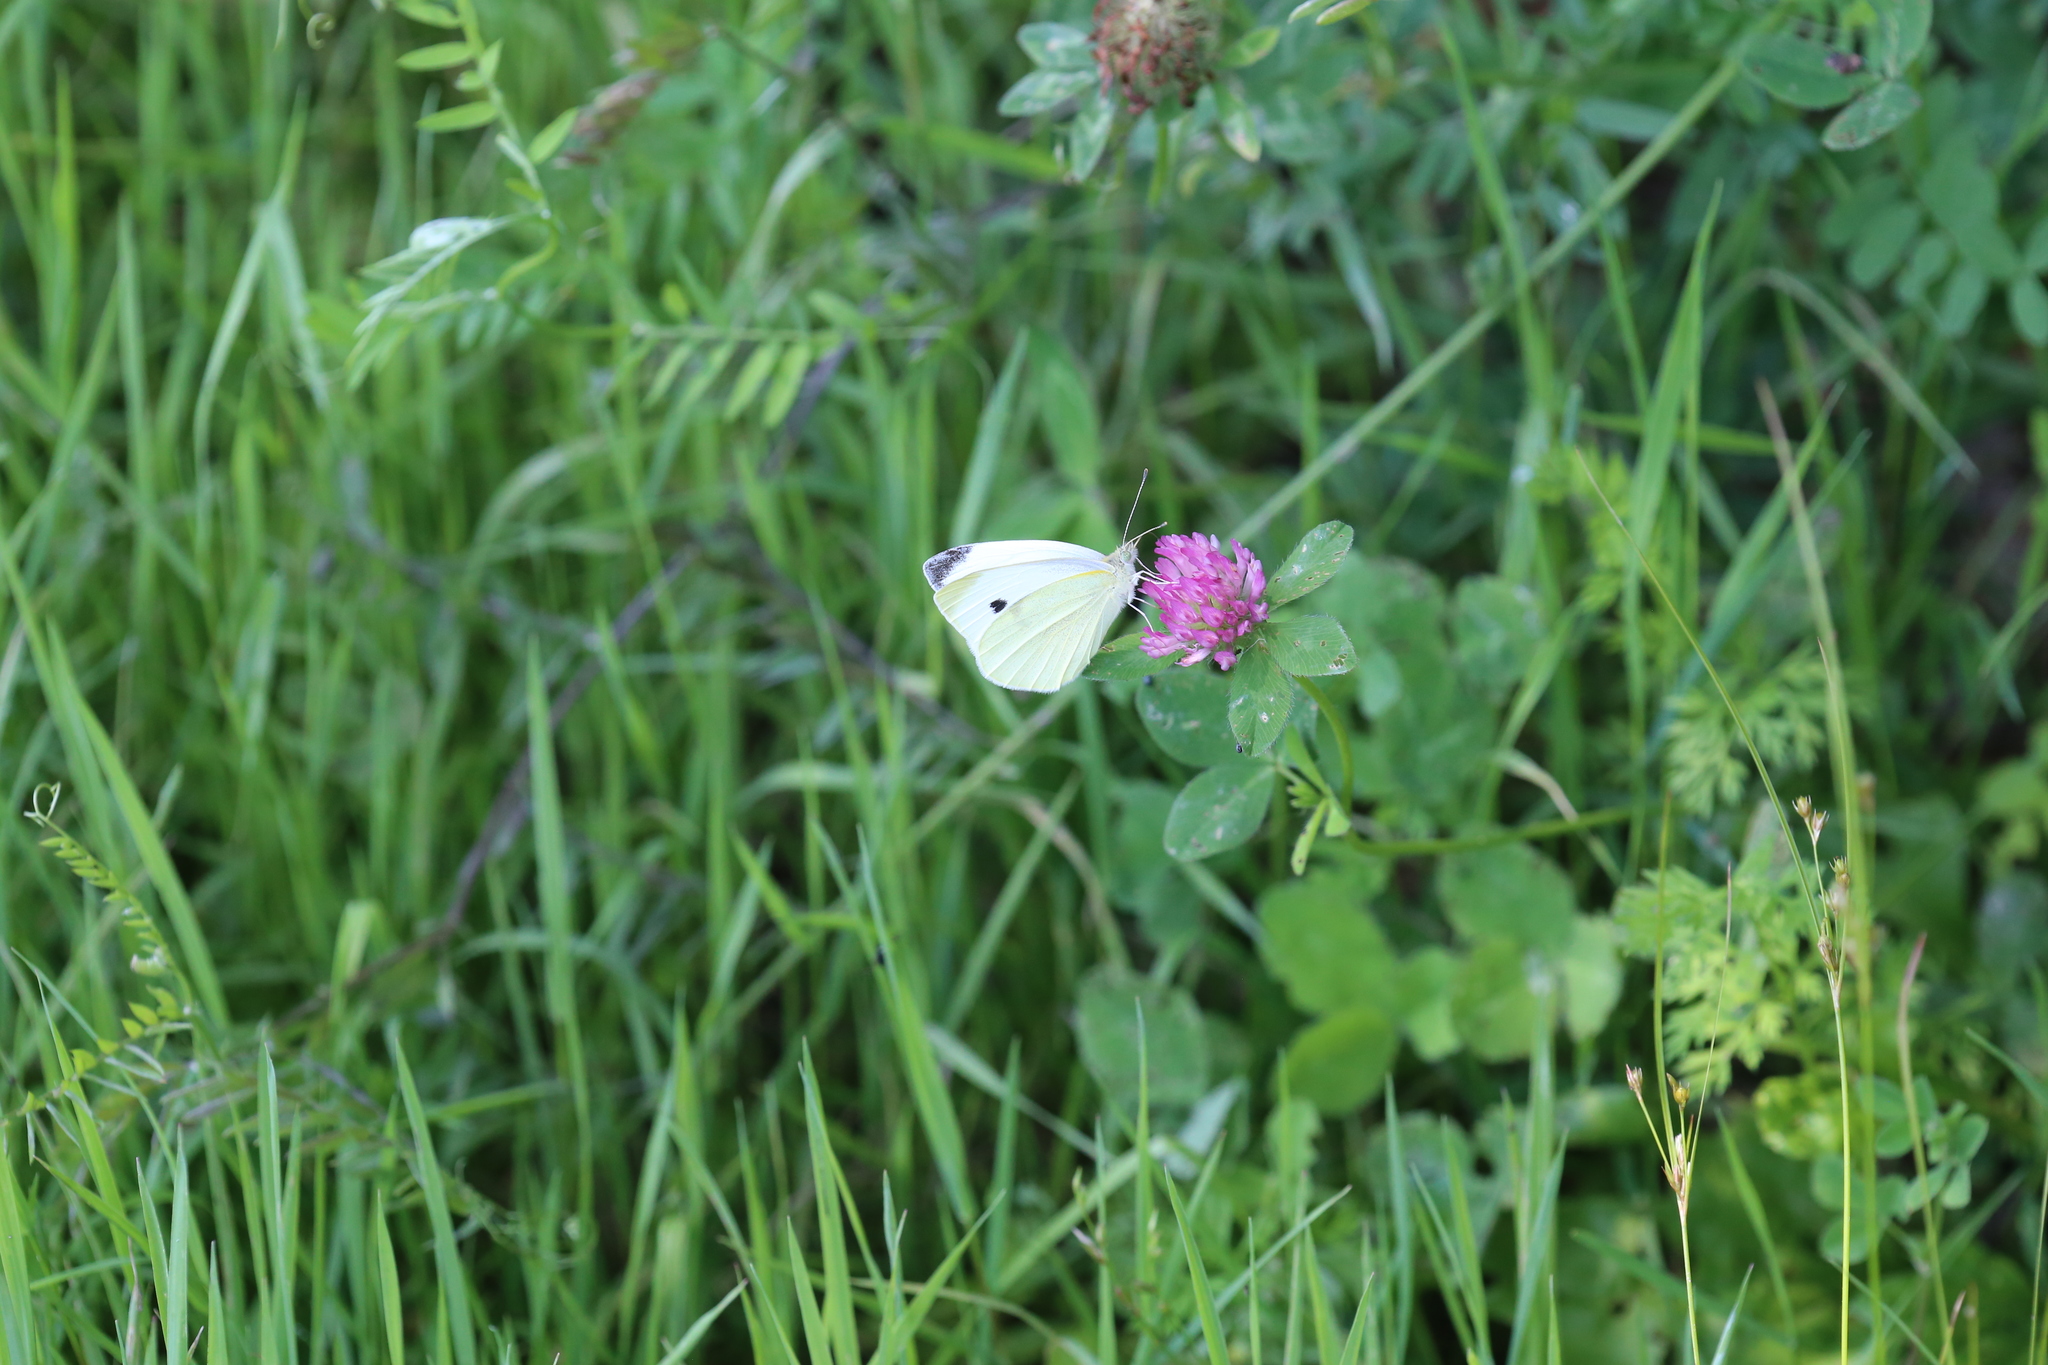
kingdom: Animalia
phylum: Arthropoda
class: Insecta
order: Lepidoptera
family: Pieridae
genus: Pieris
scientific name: Pieris rapae
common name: Small white
